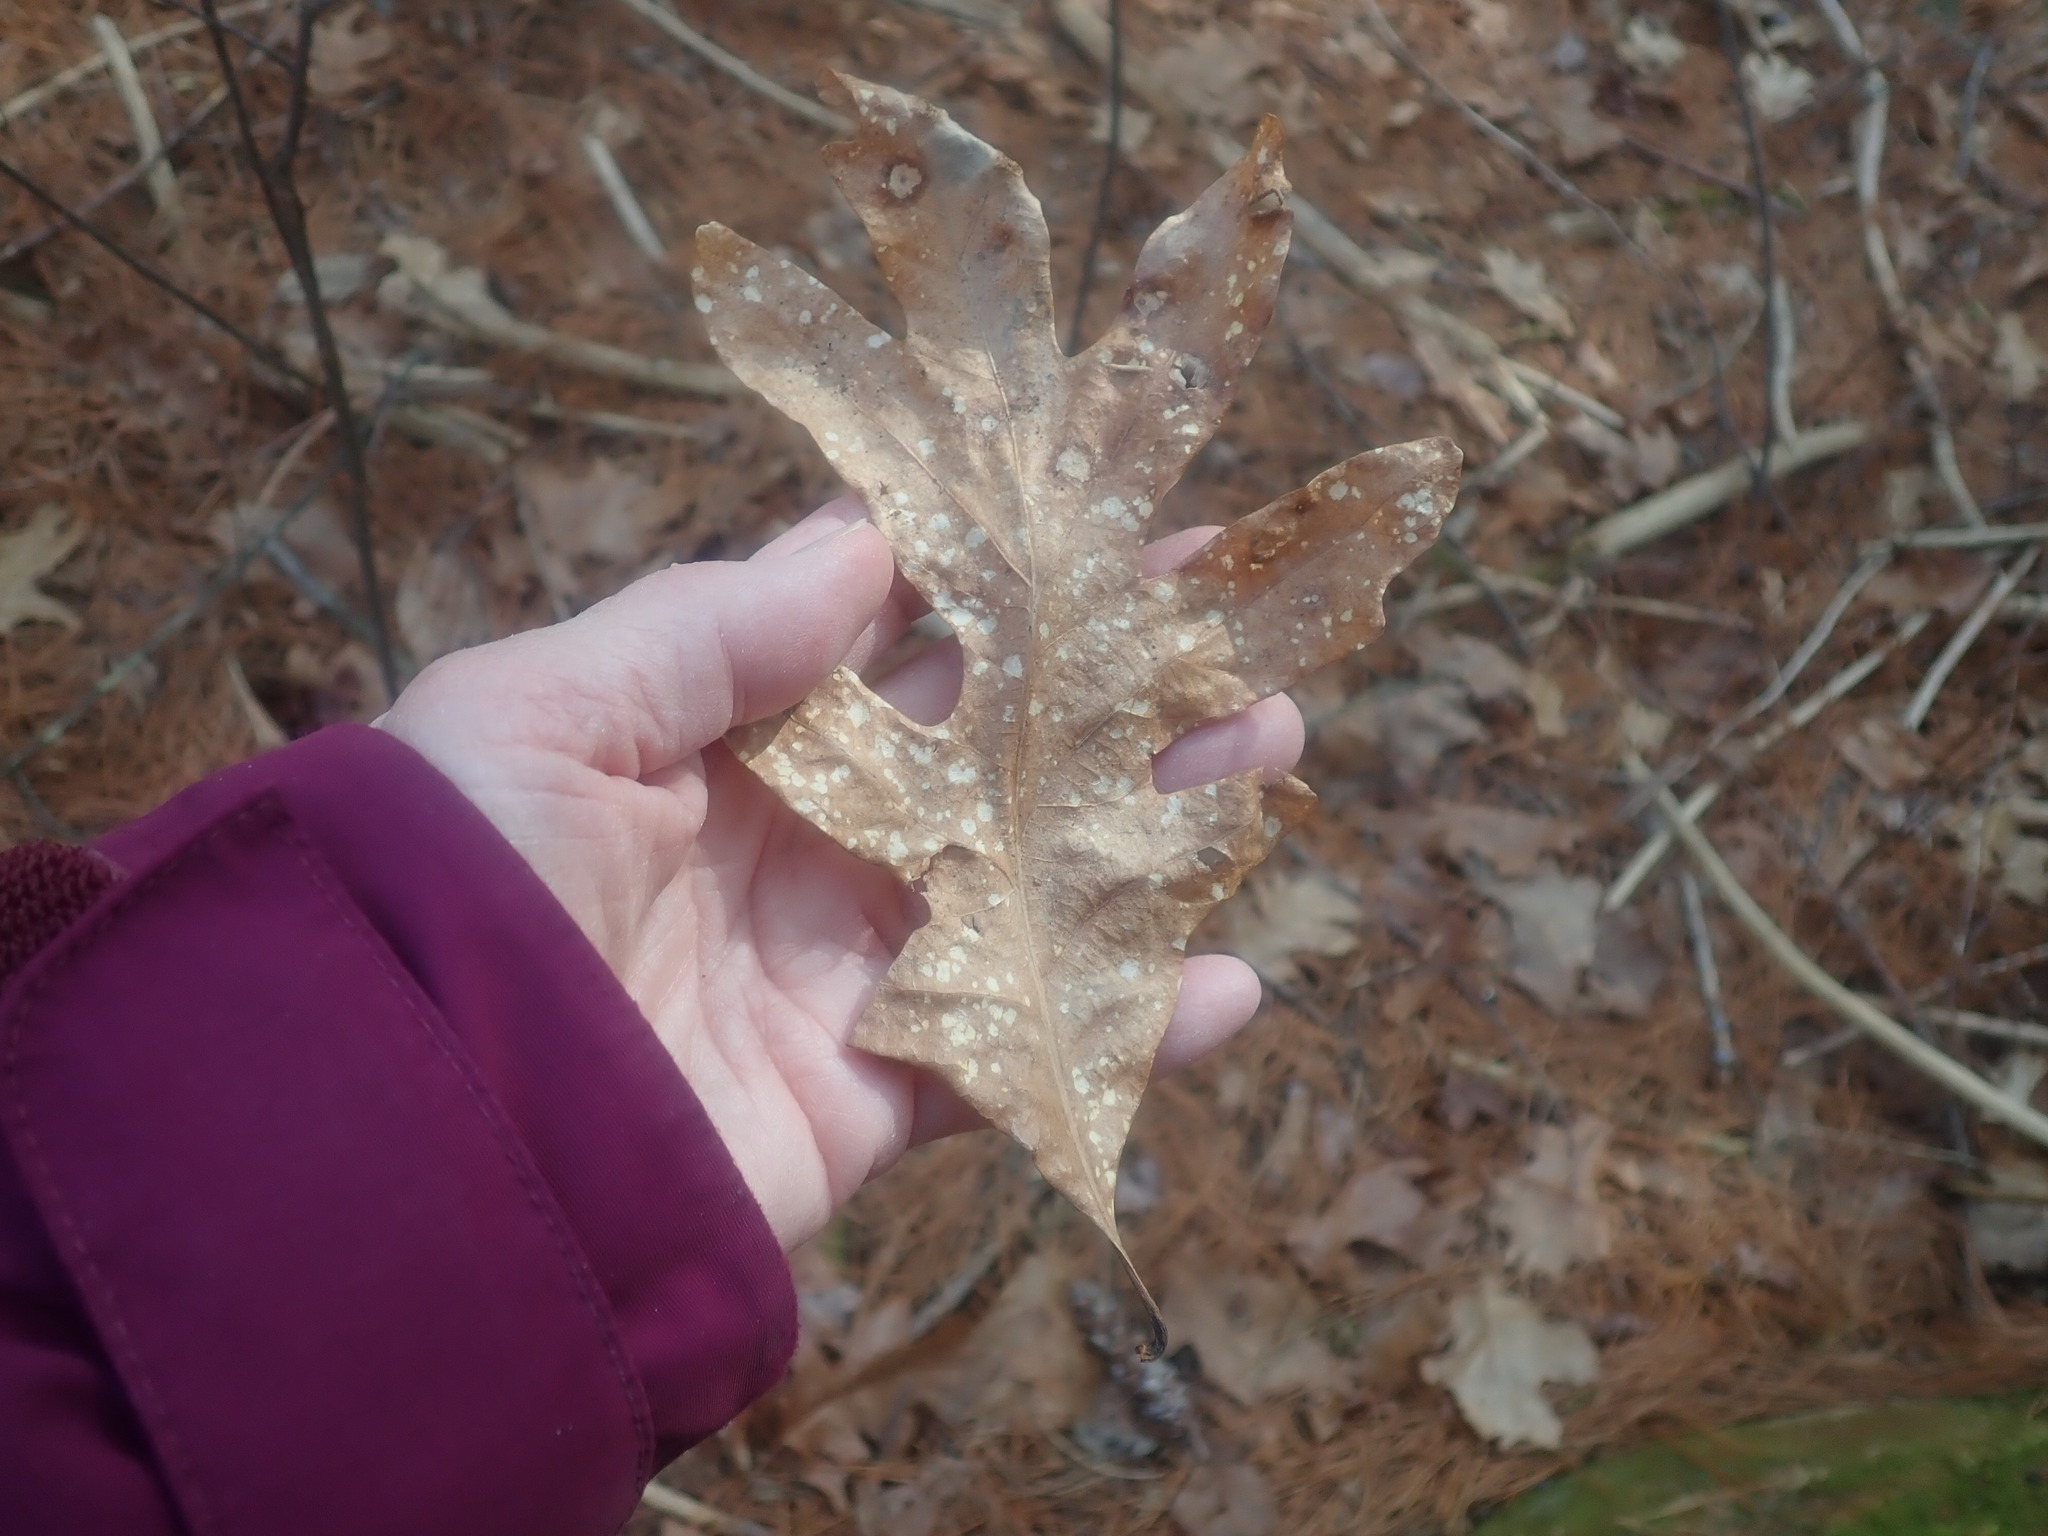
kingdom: Plantae
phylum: Tracheophyta
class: Magnoliopsida
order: Fagales
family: Fagaceae
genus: Quercus
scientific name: Quercus alba
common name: White oak
